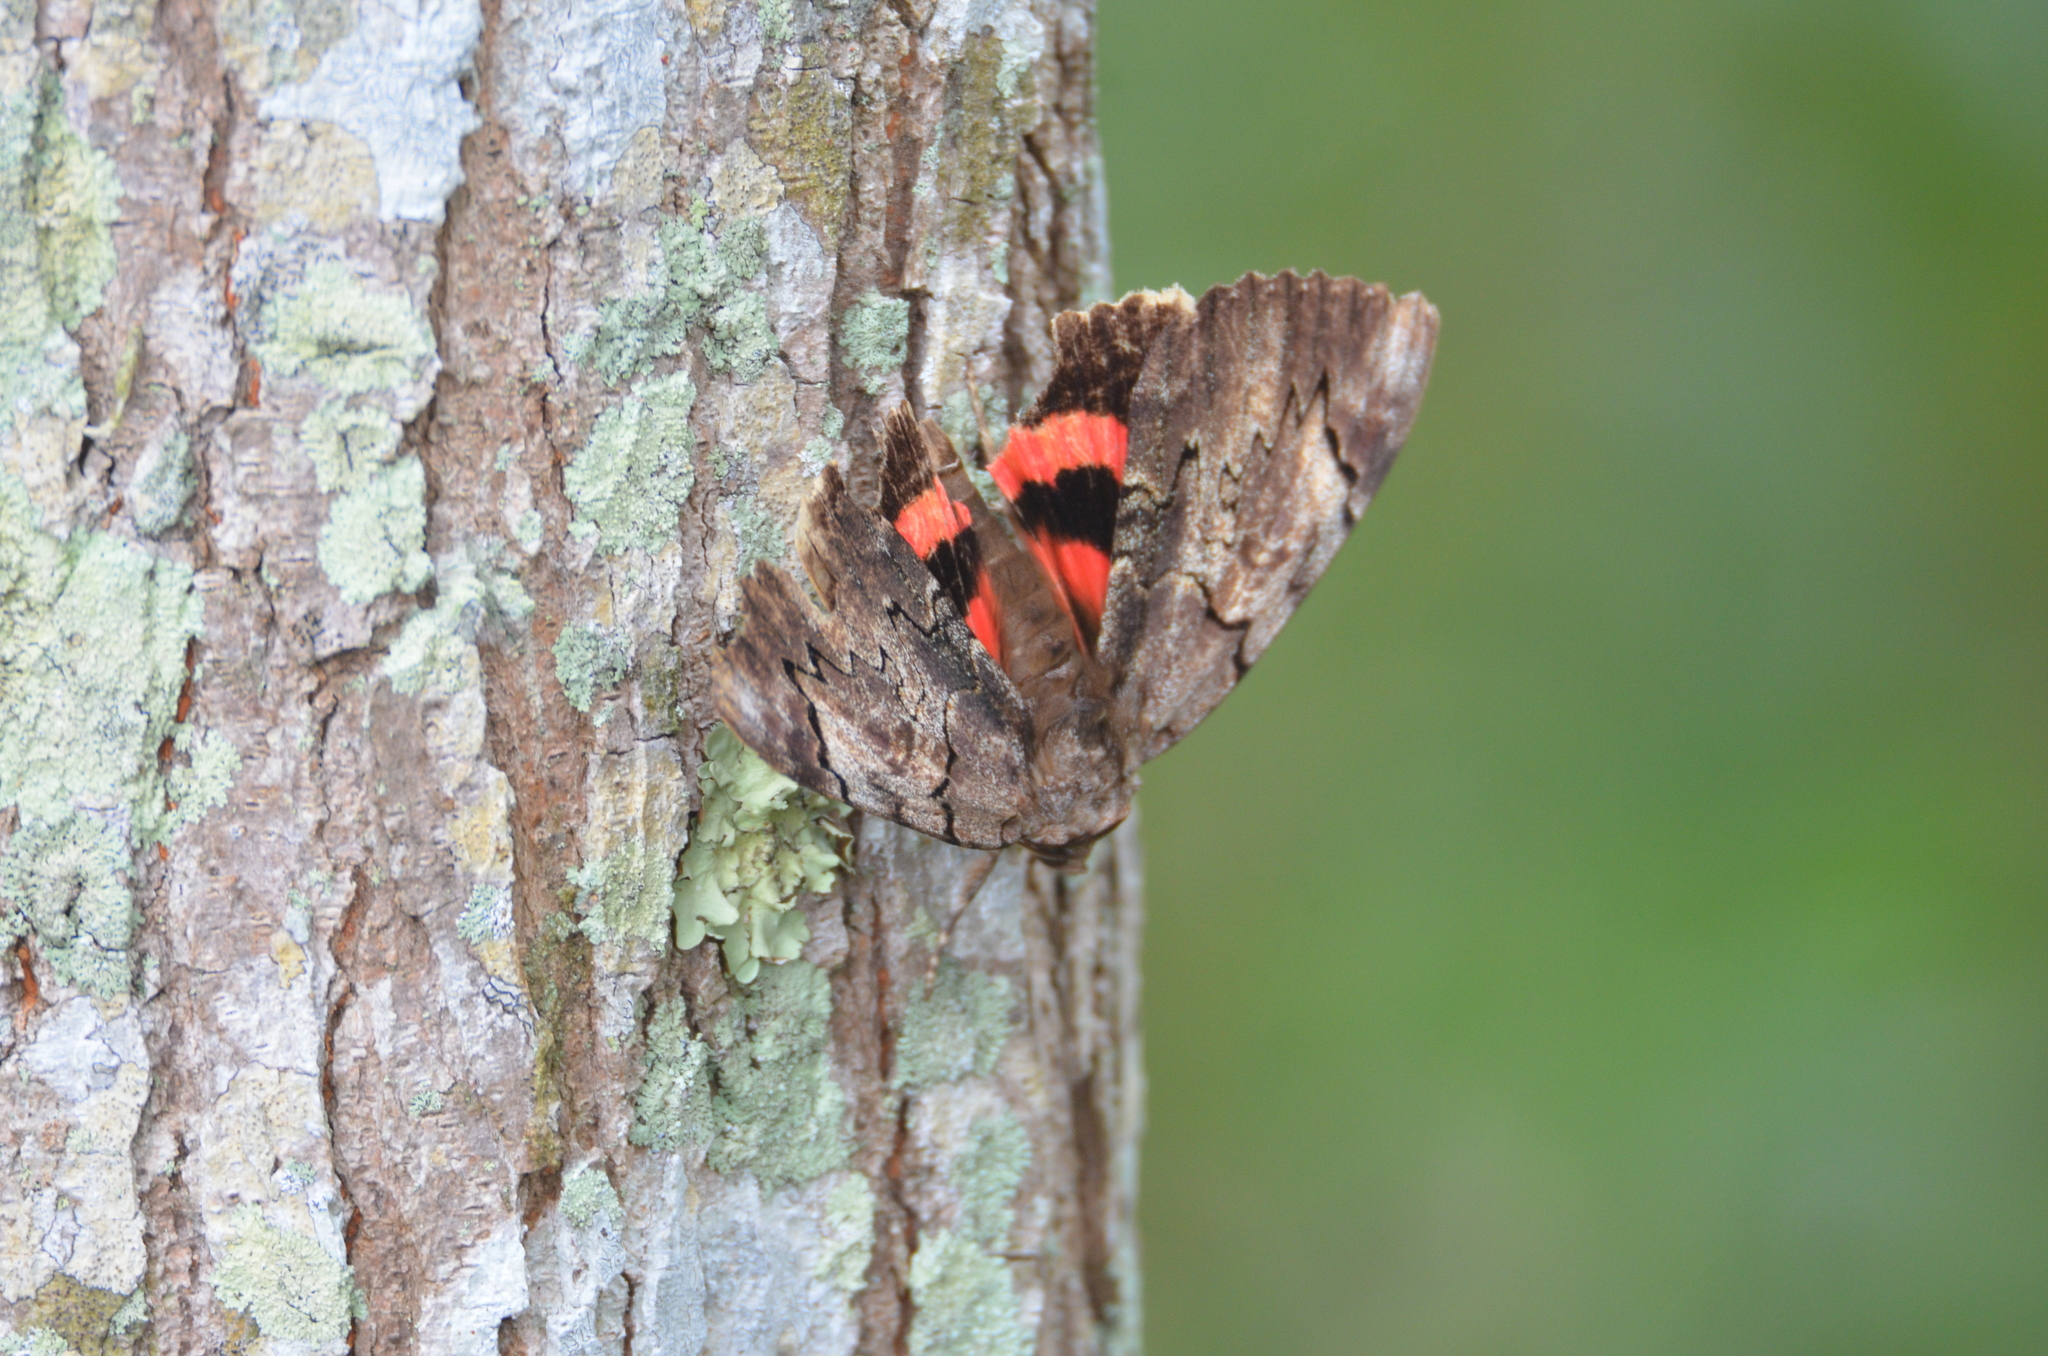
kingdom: Animalia
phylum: Arthropoda
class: Insecta
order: Lepidoptera
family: Erebidae
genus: Catocala
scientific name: Catocala carissima
